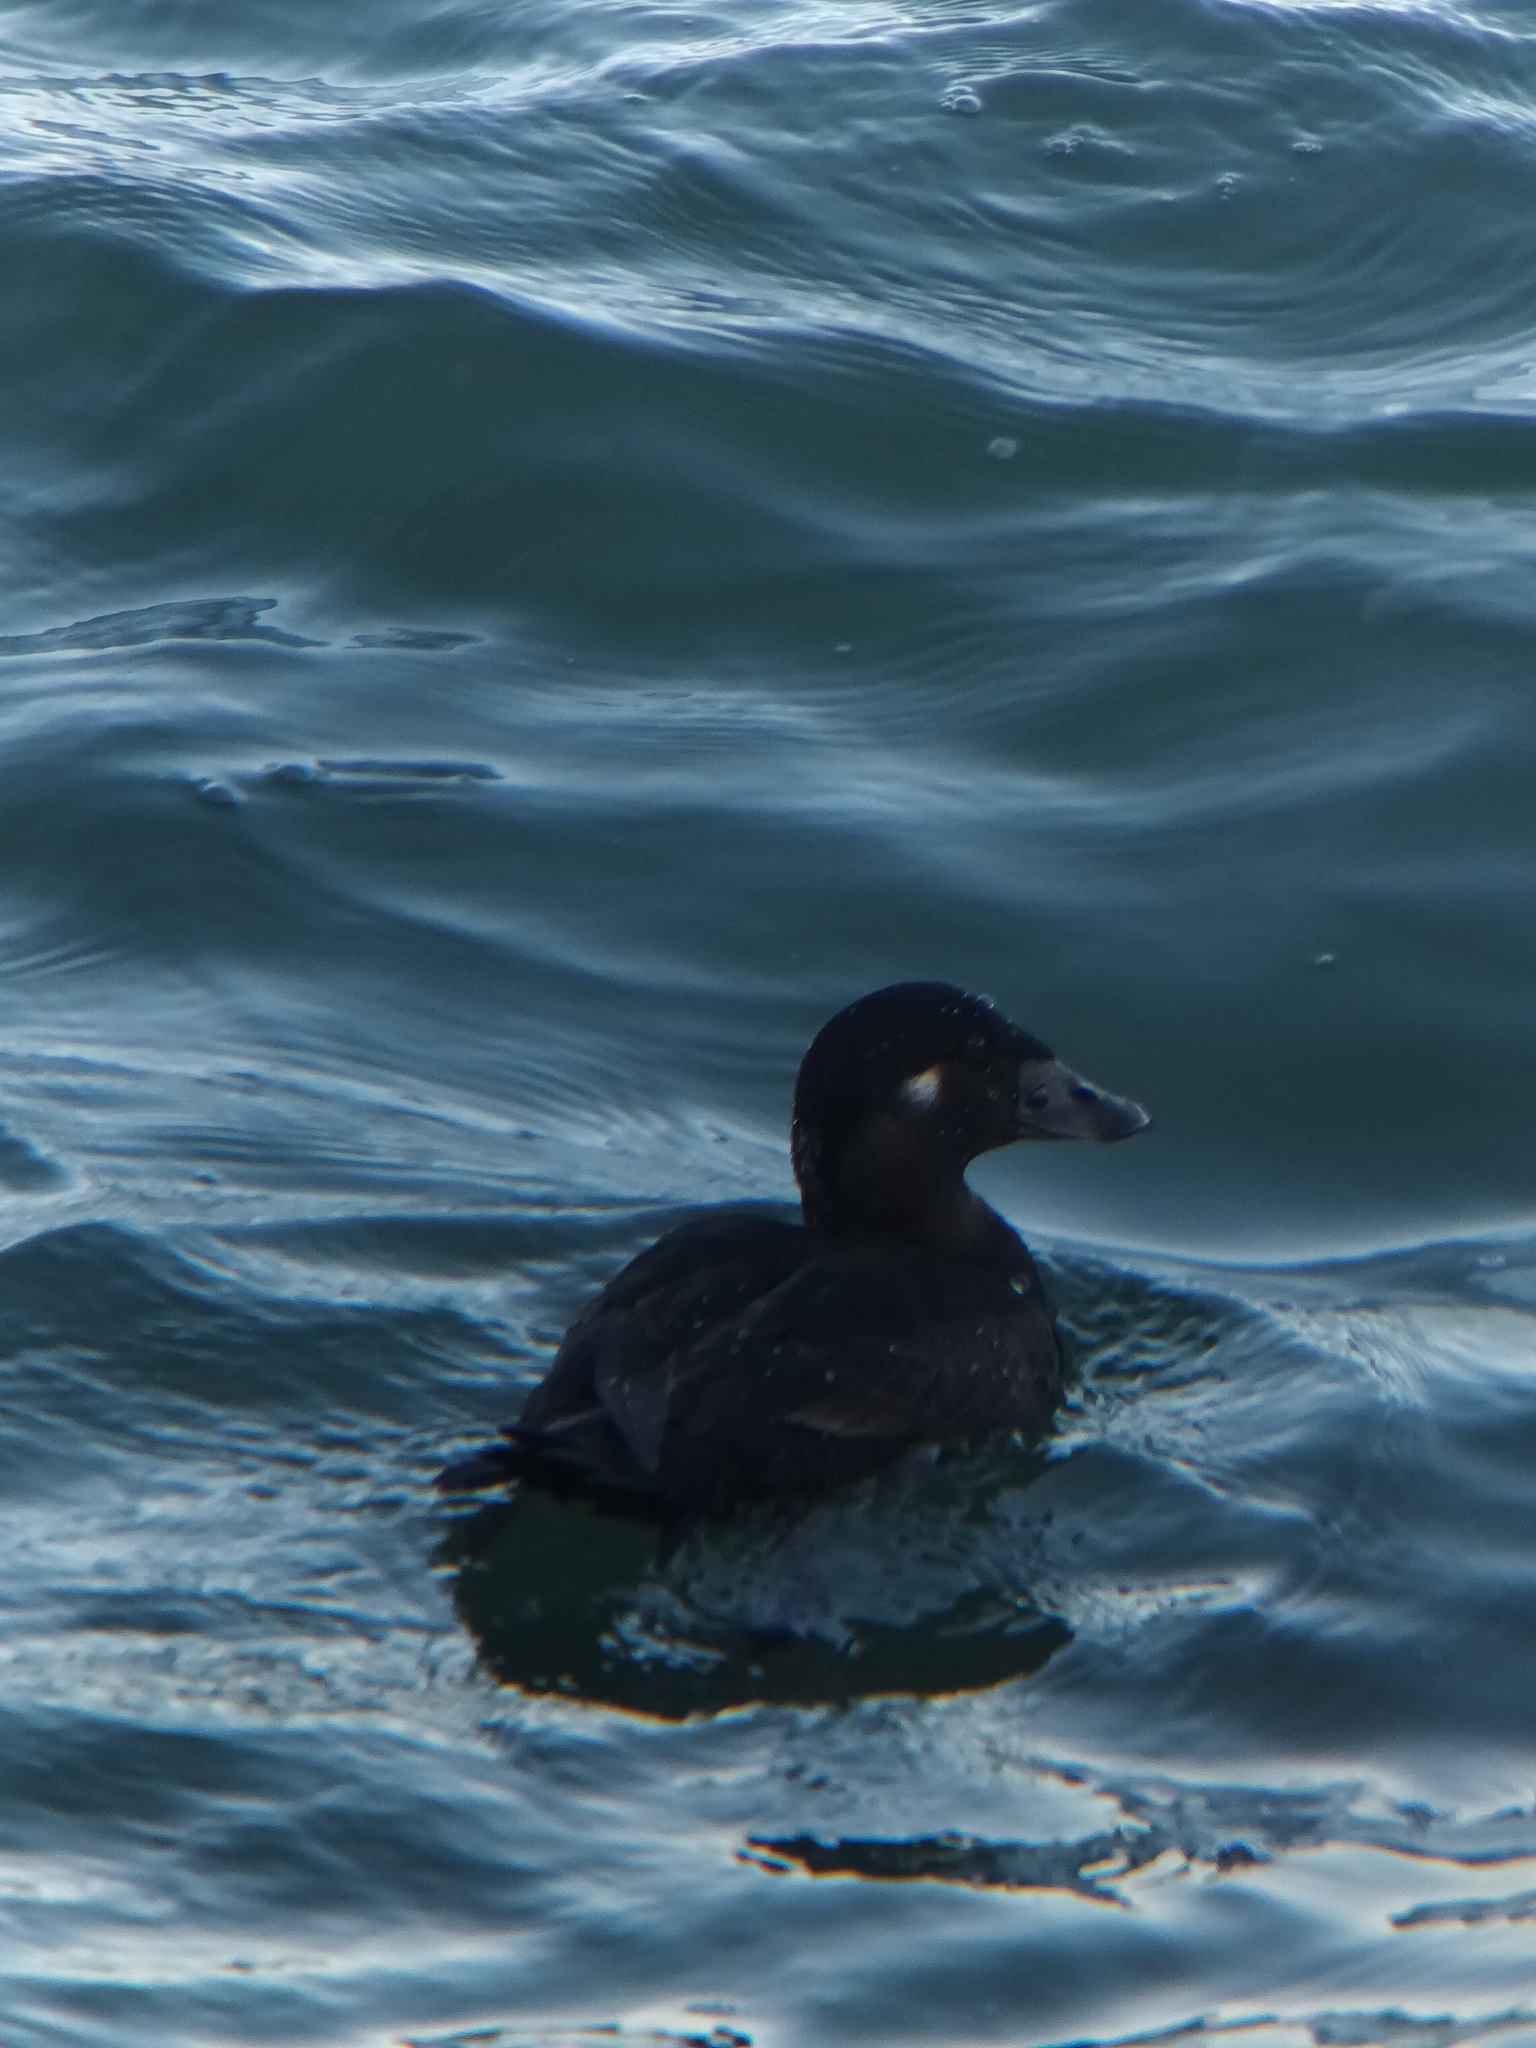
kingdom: Animalia
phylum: Chordata
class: Aves
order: Anseriformes
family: Anatidae
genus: Melanitta
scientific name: Melanitta perspicillata
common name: Surf scoter
